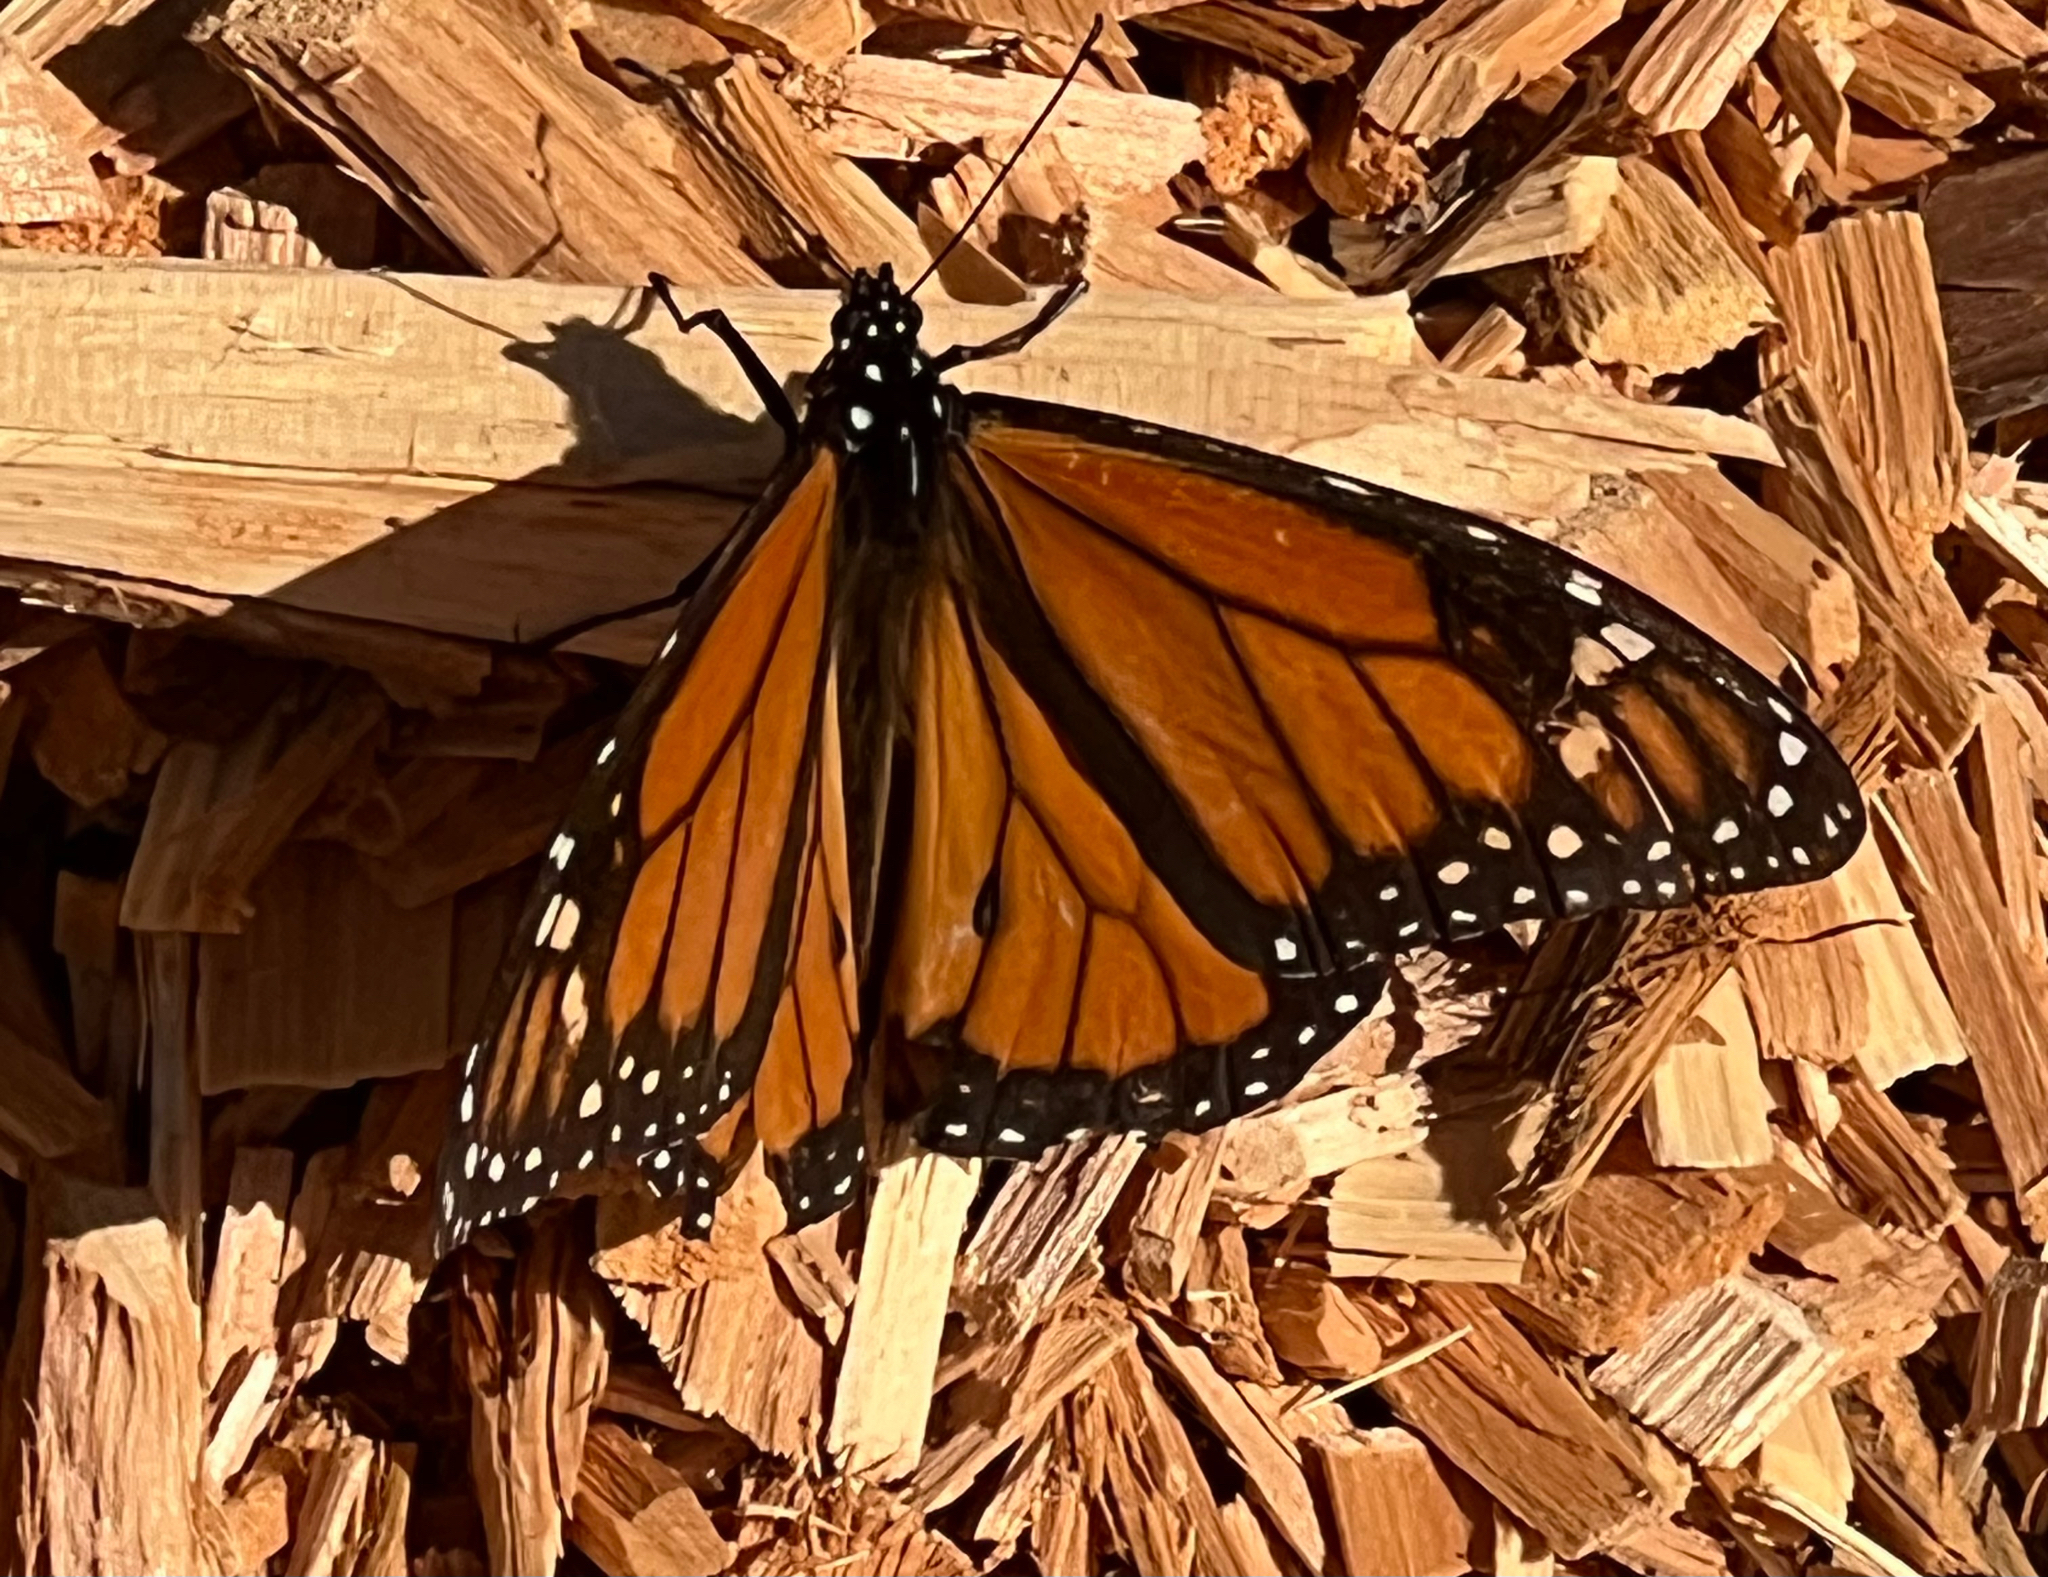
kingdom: Animalia
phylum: Arthropoda
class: Insecta
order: Lepidoptera
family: Nymphalidae
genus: Danaus
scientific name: Danaus plexippus
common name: Monarch
